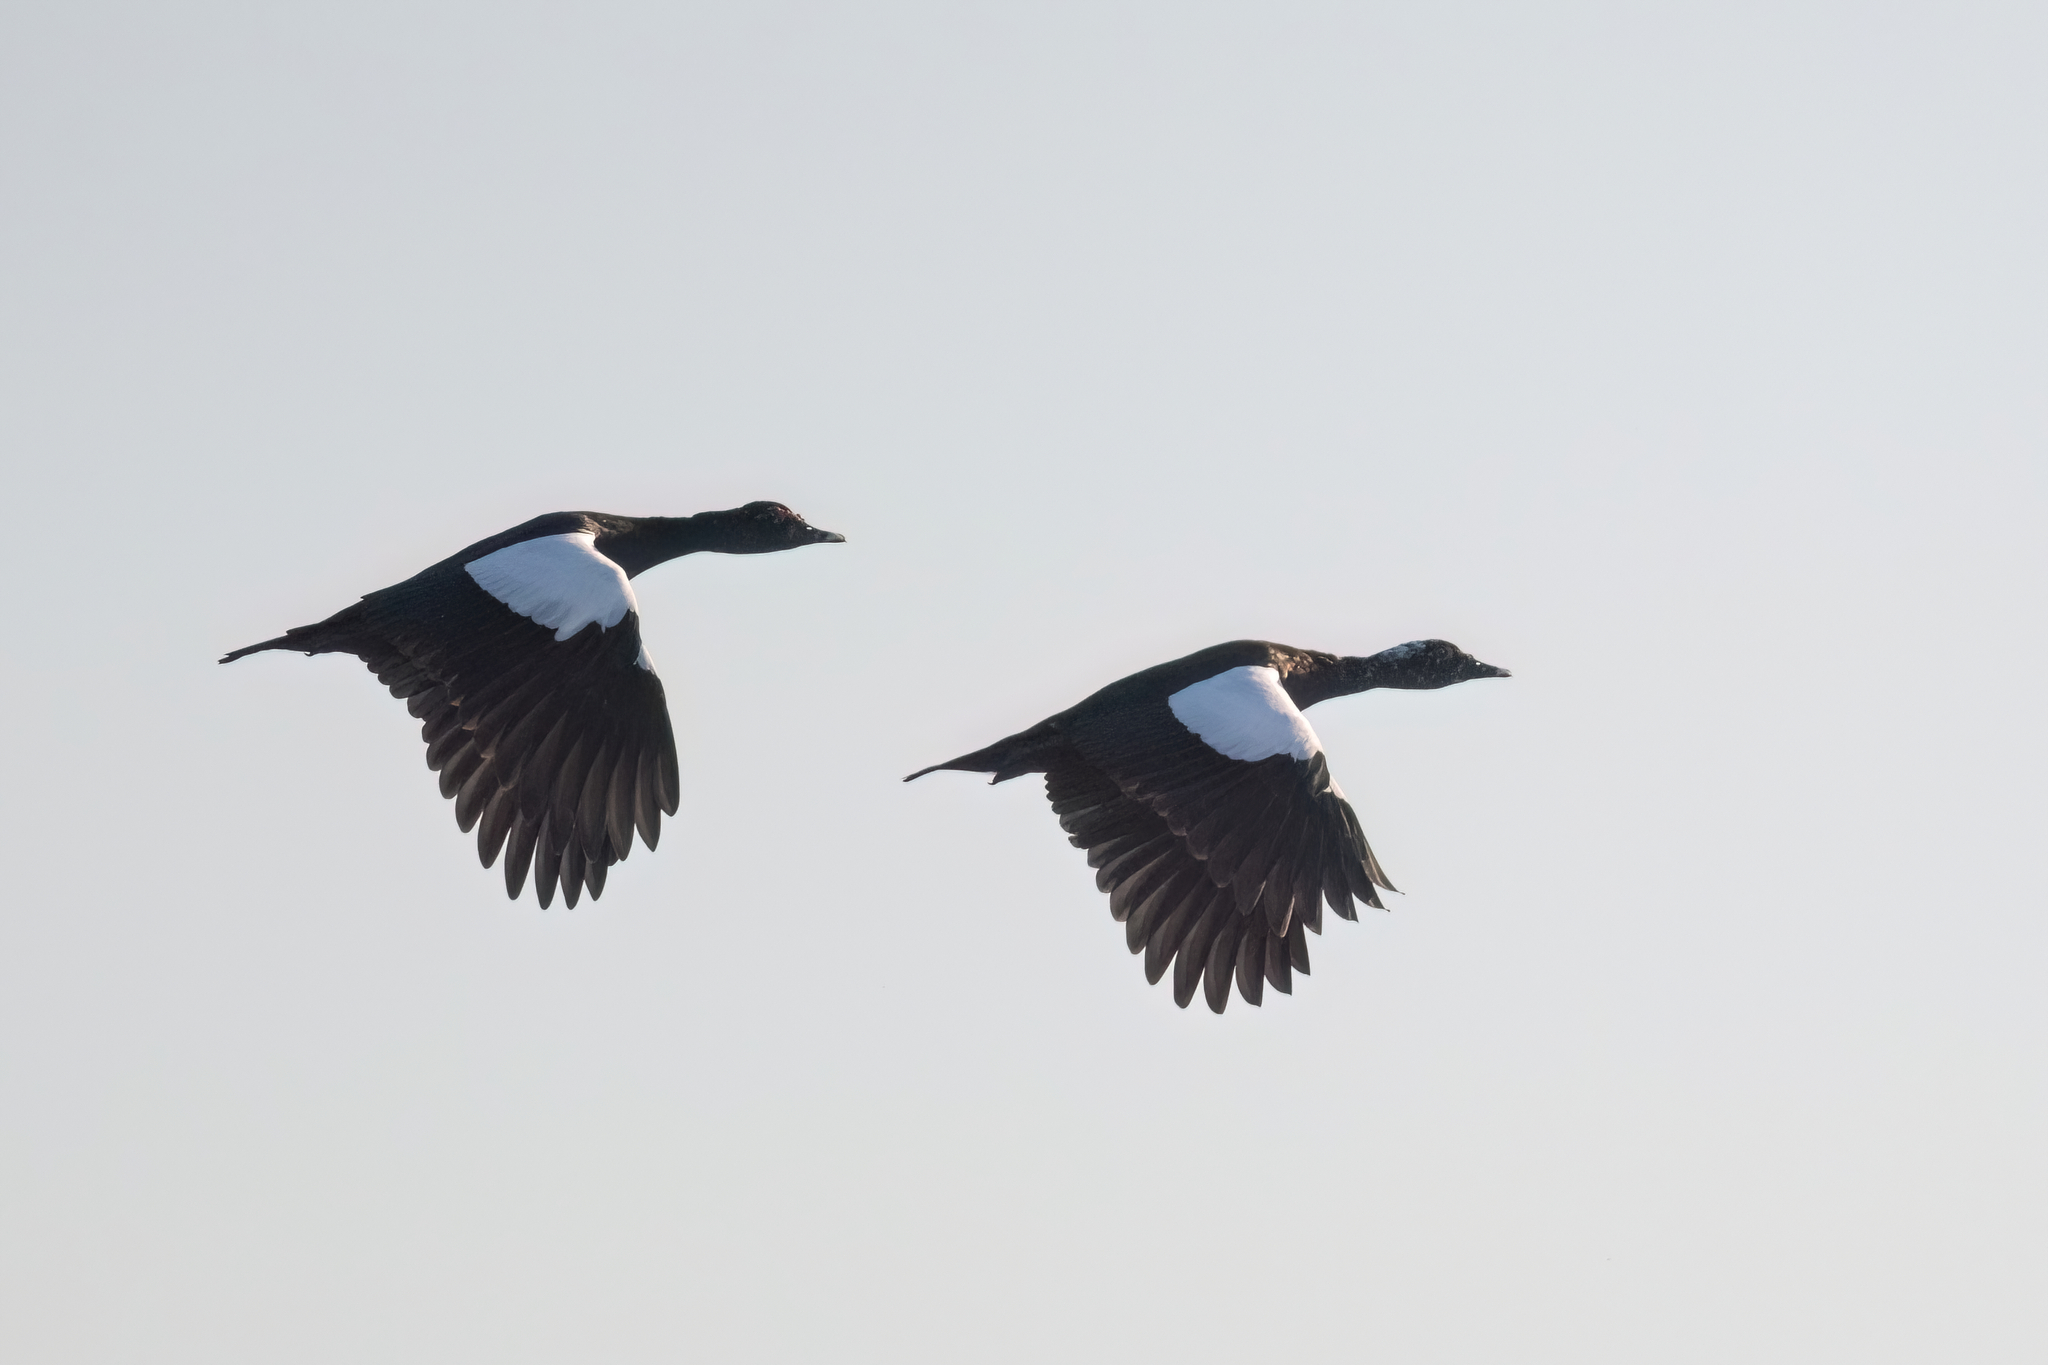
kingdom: Animalia
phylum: Chordata
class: Aves
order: Anseriformes
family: Anatidae
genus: Cairina
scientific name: Cairina moschata
